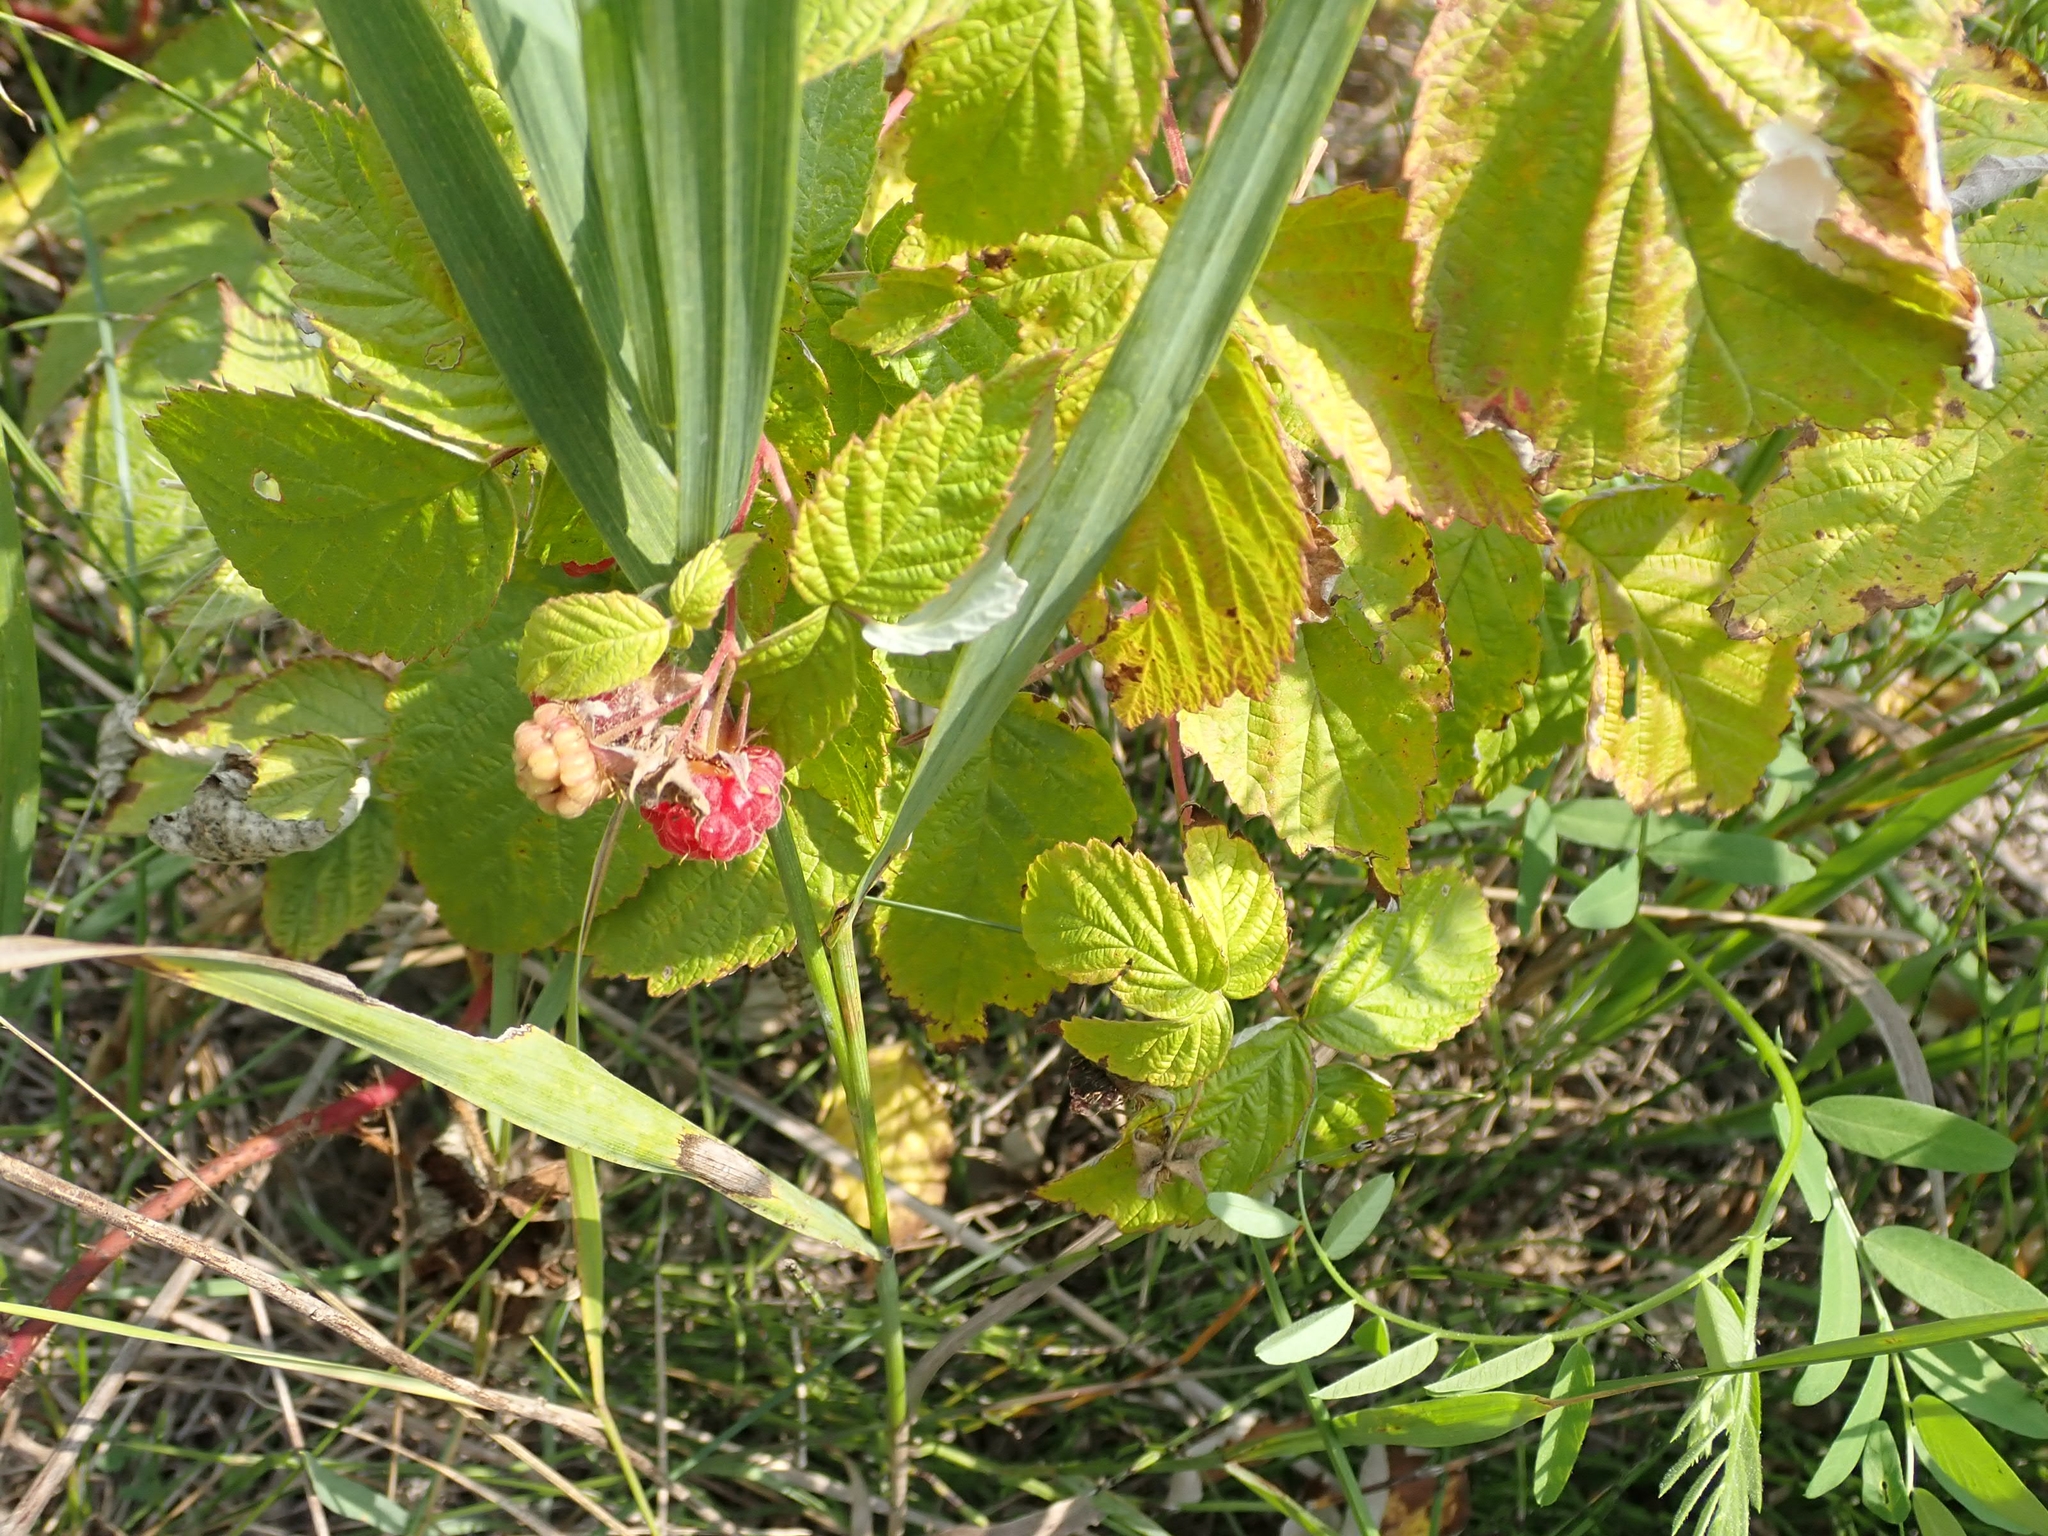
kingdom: Plantae
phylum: Tracheophyta
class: Magnoliopsida
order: Rosales
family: Rosaceae
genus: Rubus
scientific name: Rubus idaeus
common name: Raspberry
